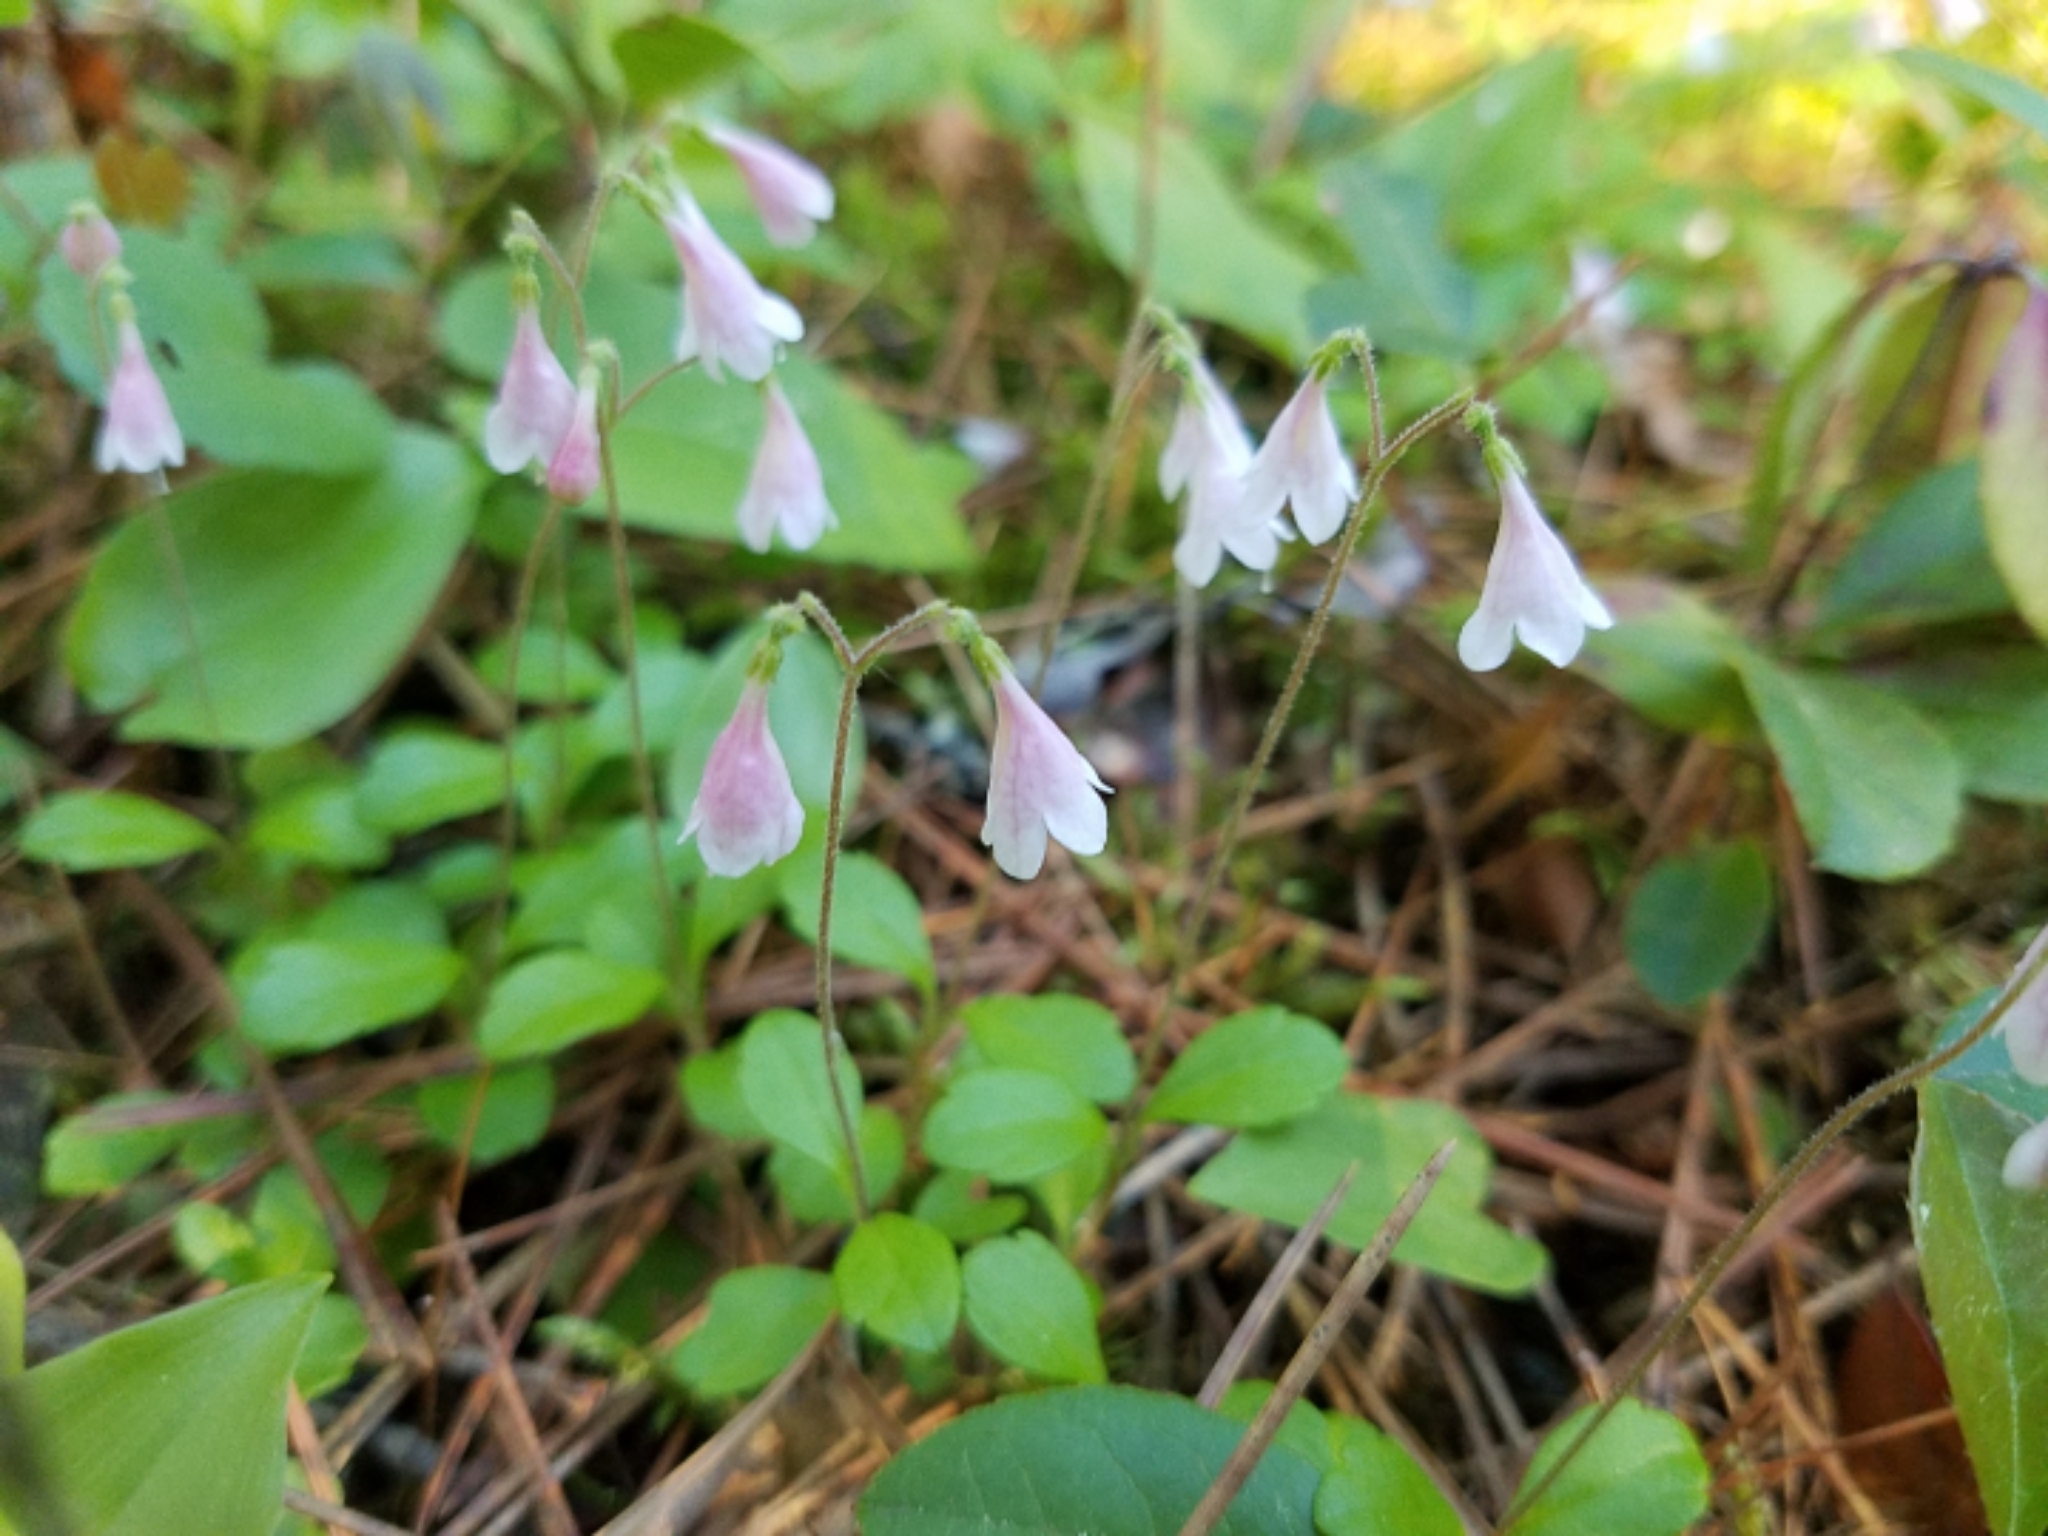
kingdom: Plantae
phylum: Tracheophyta
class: Magnoliopsida
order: Dipsacales
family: Caprifoliaceae
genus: Linnaea
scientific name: Linnaea borealis
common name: Twinflower
